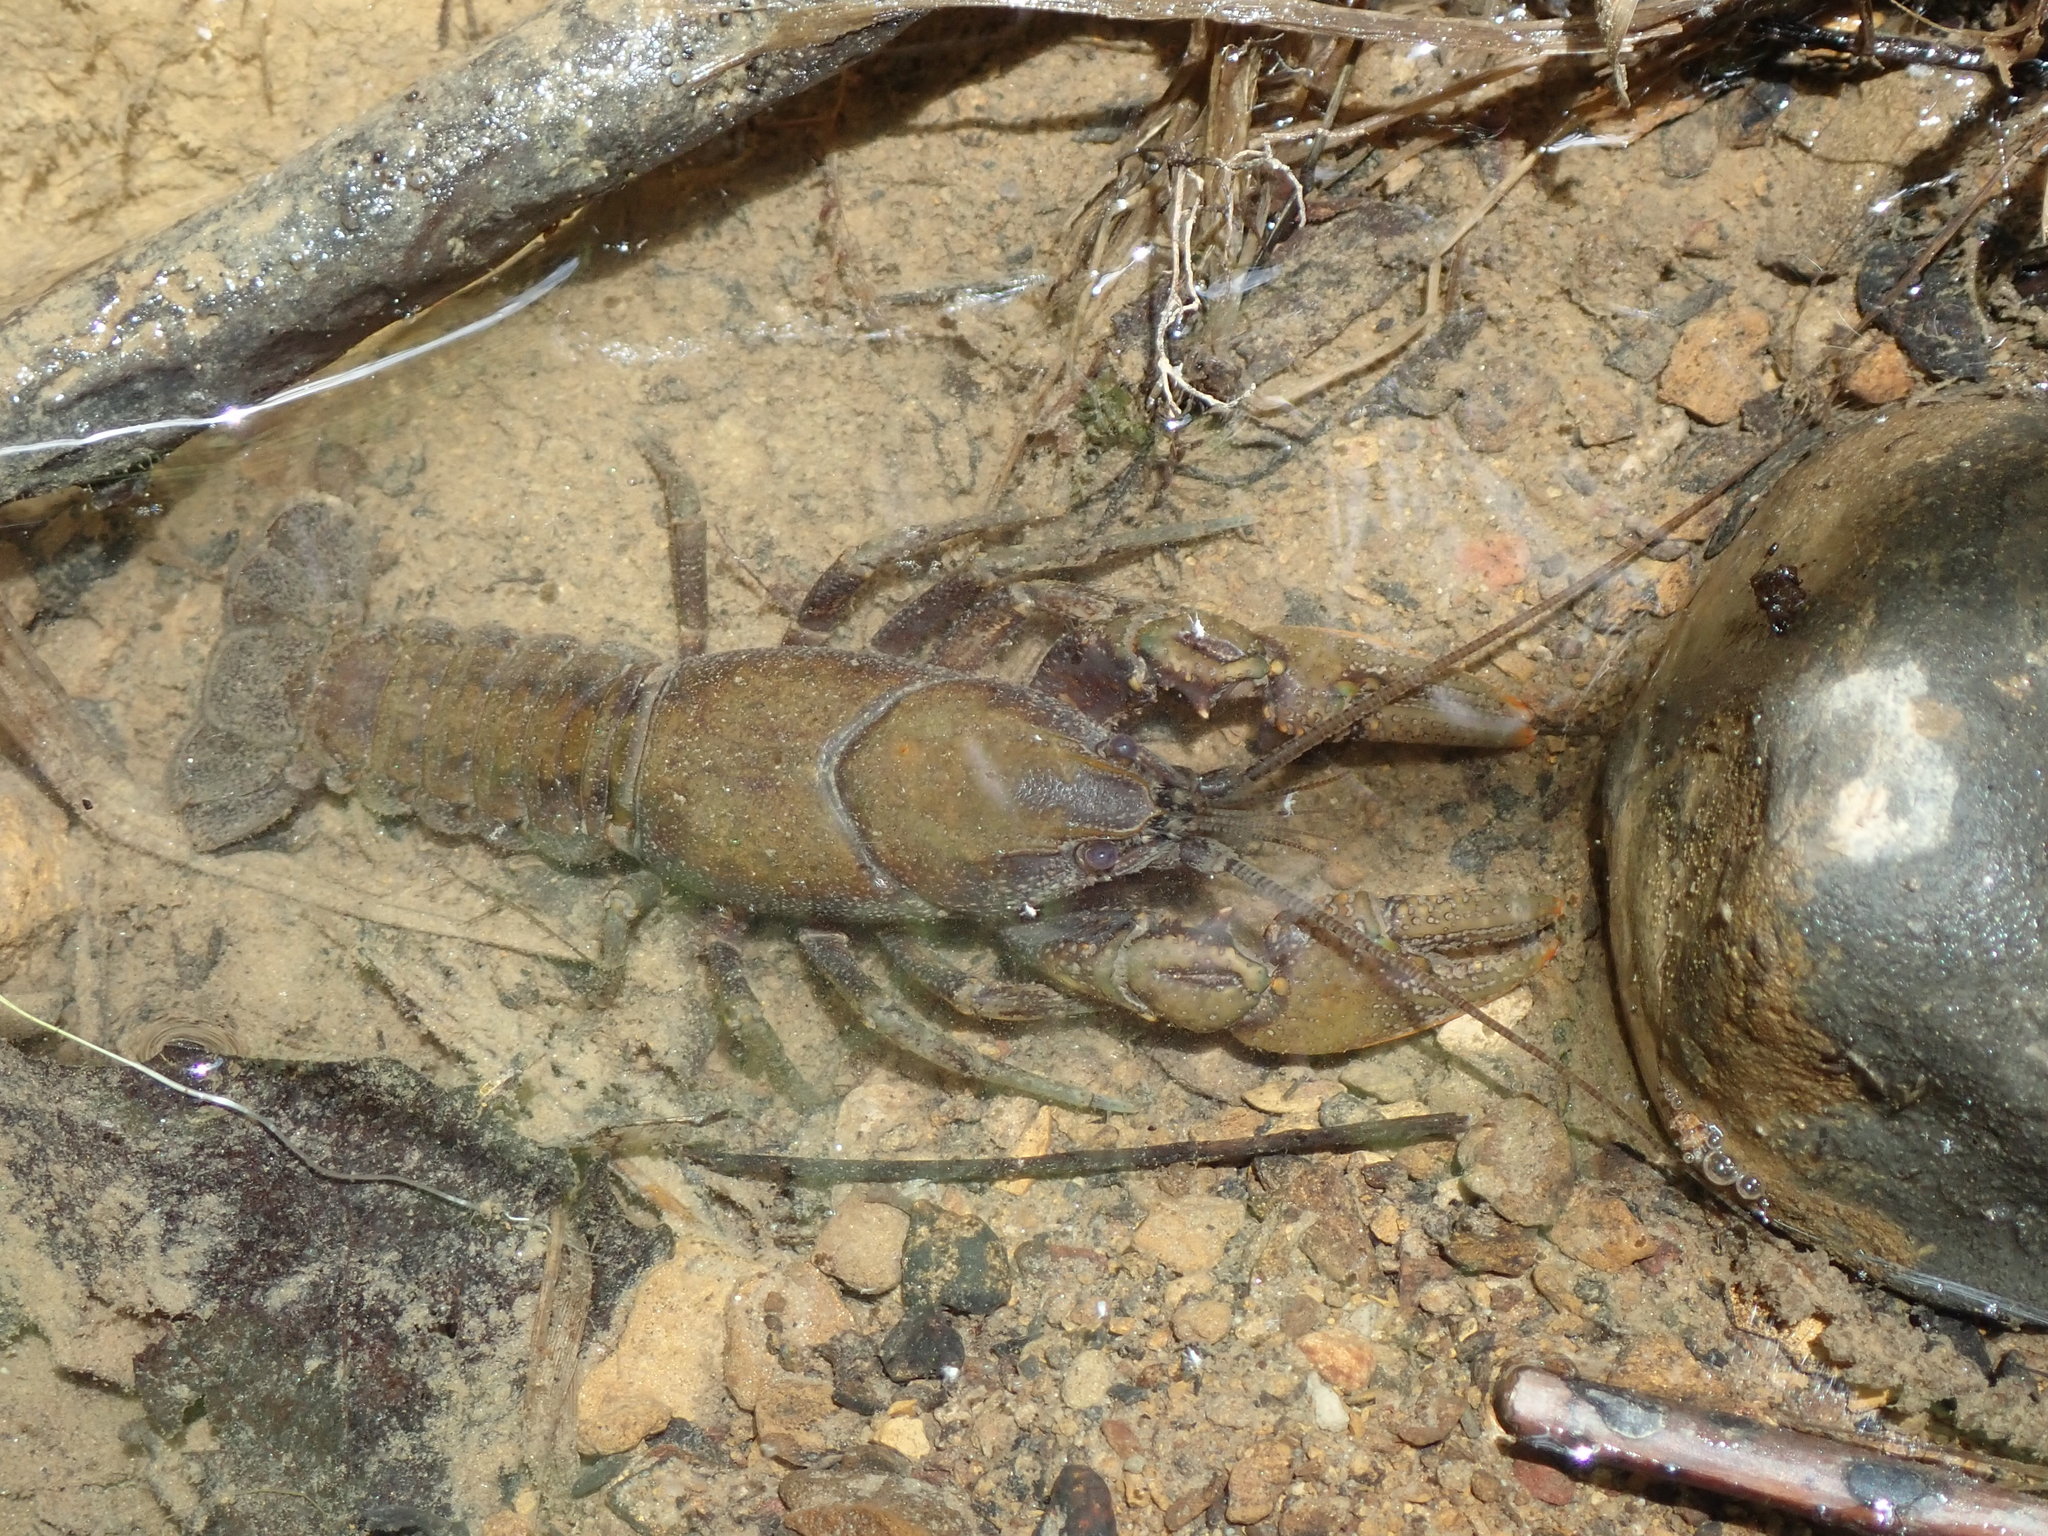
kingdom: Animalia
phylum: Arthropoda
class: Malacostraca
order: Decapoda
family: Cambaridae
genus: Cambarus
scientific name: Cambarus bartonii
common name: Appalachian brook crayfish
